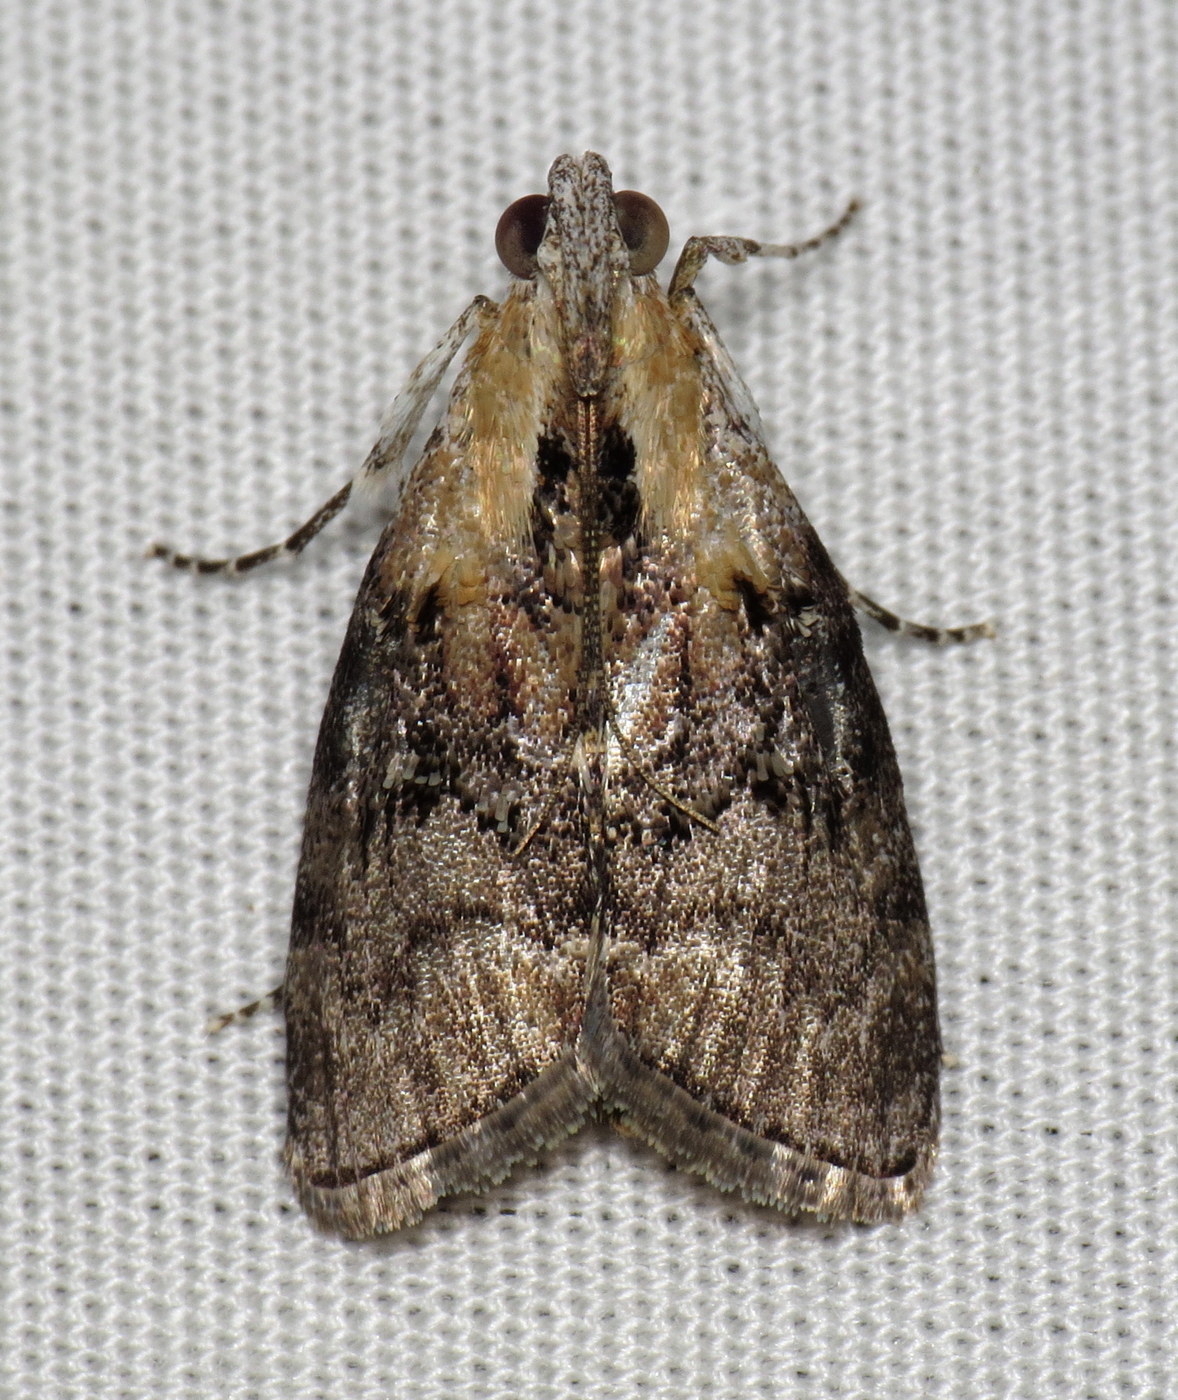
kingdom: Animalia
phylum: Arthropoda
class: Insecta
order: Lepidoptera
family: Pyralidae
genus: Pococera
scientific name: Pococera expandens
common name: Striped oak webworm moth
